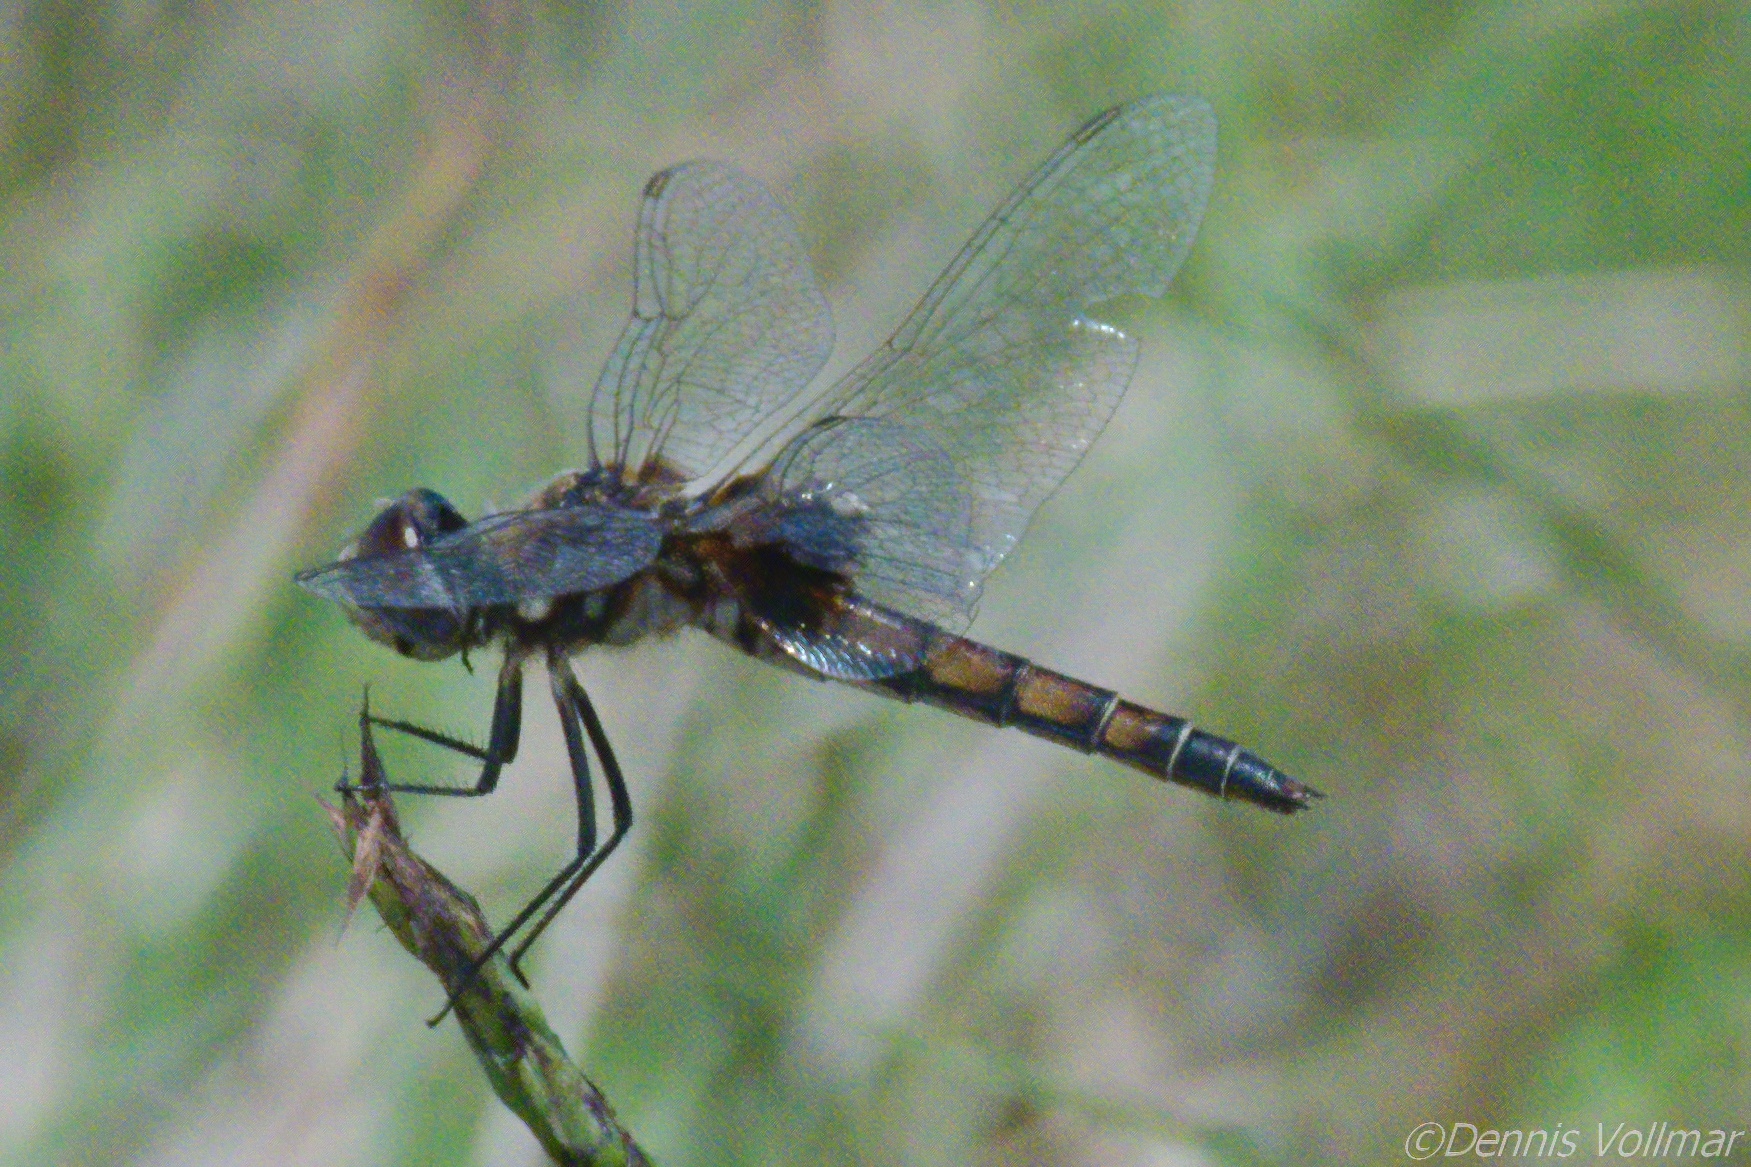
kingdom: Animalia
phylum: Arthropoda
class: Insecta
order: Odonata
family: Libellulidae
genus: Macrodiplax
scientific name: Macrodiplax balteata
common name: Marl pennant
